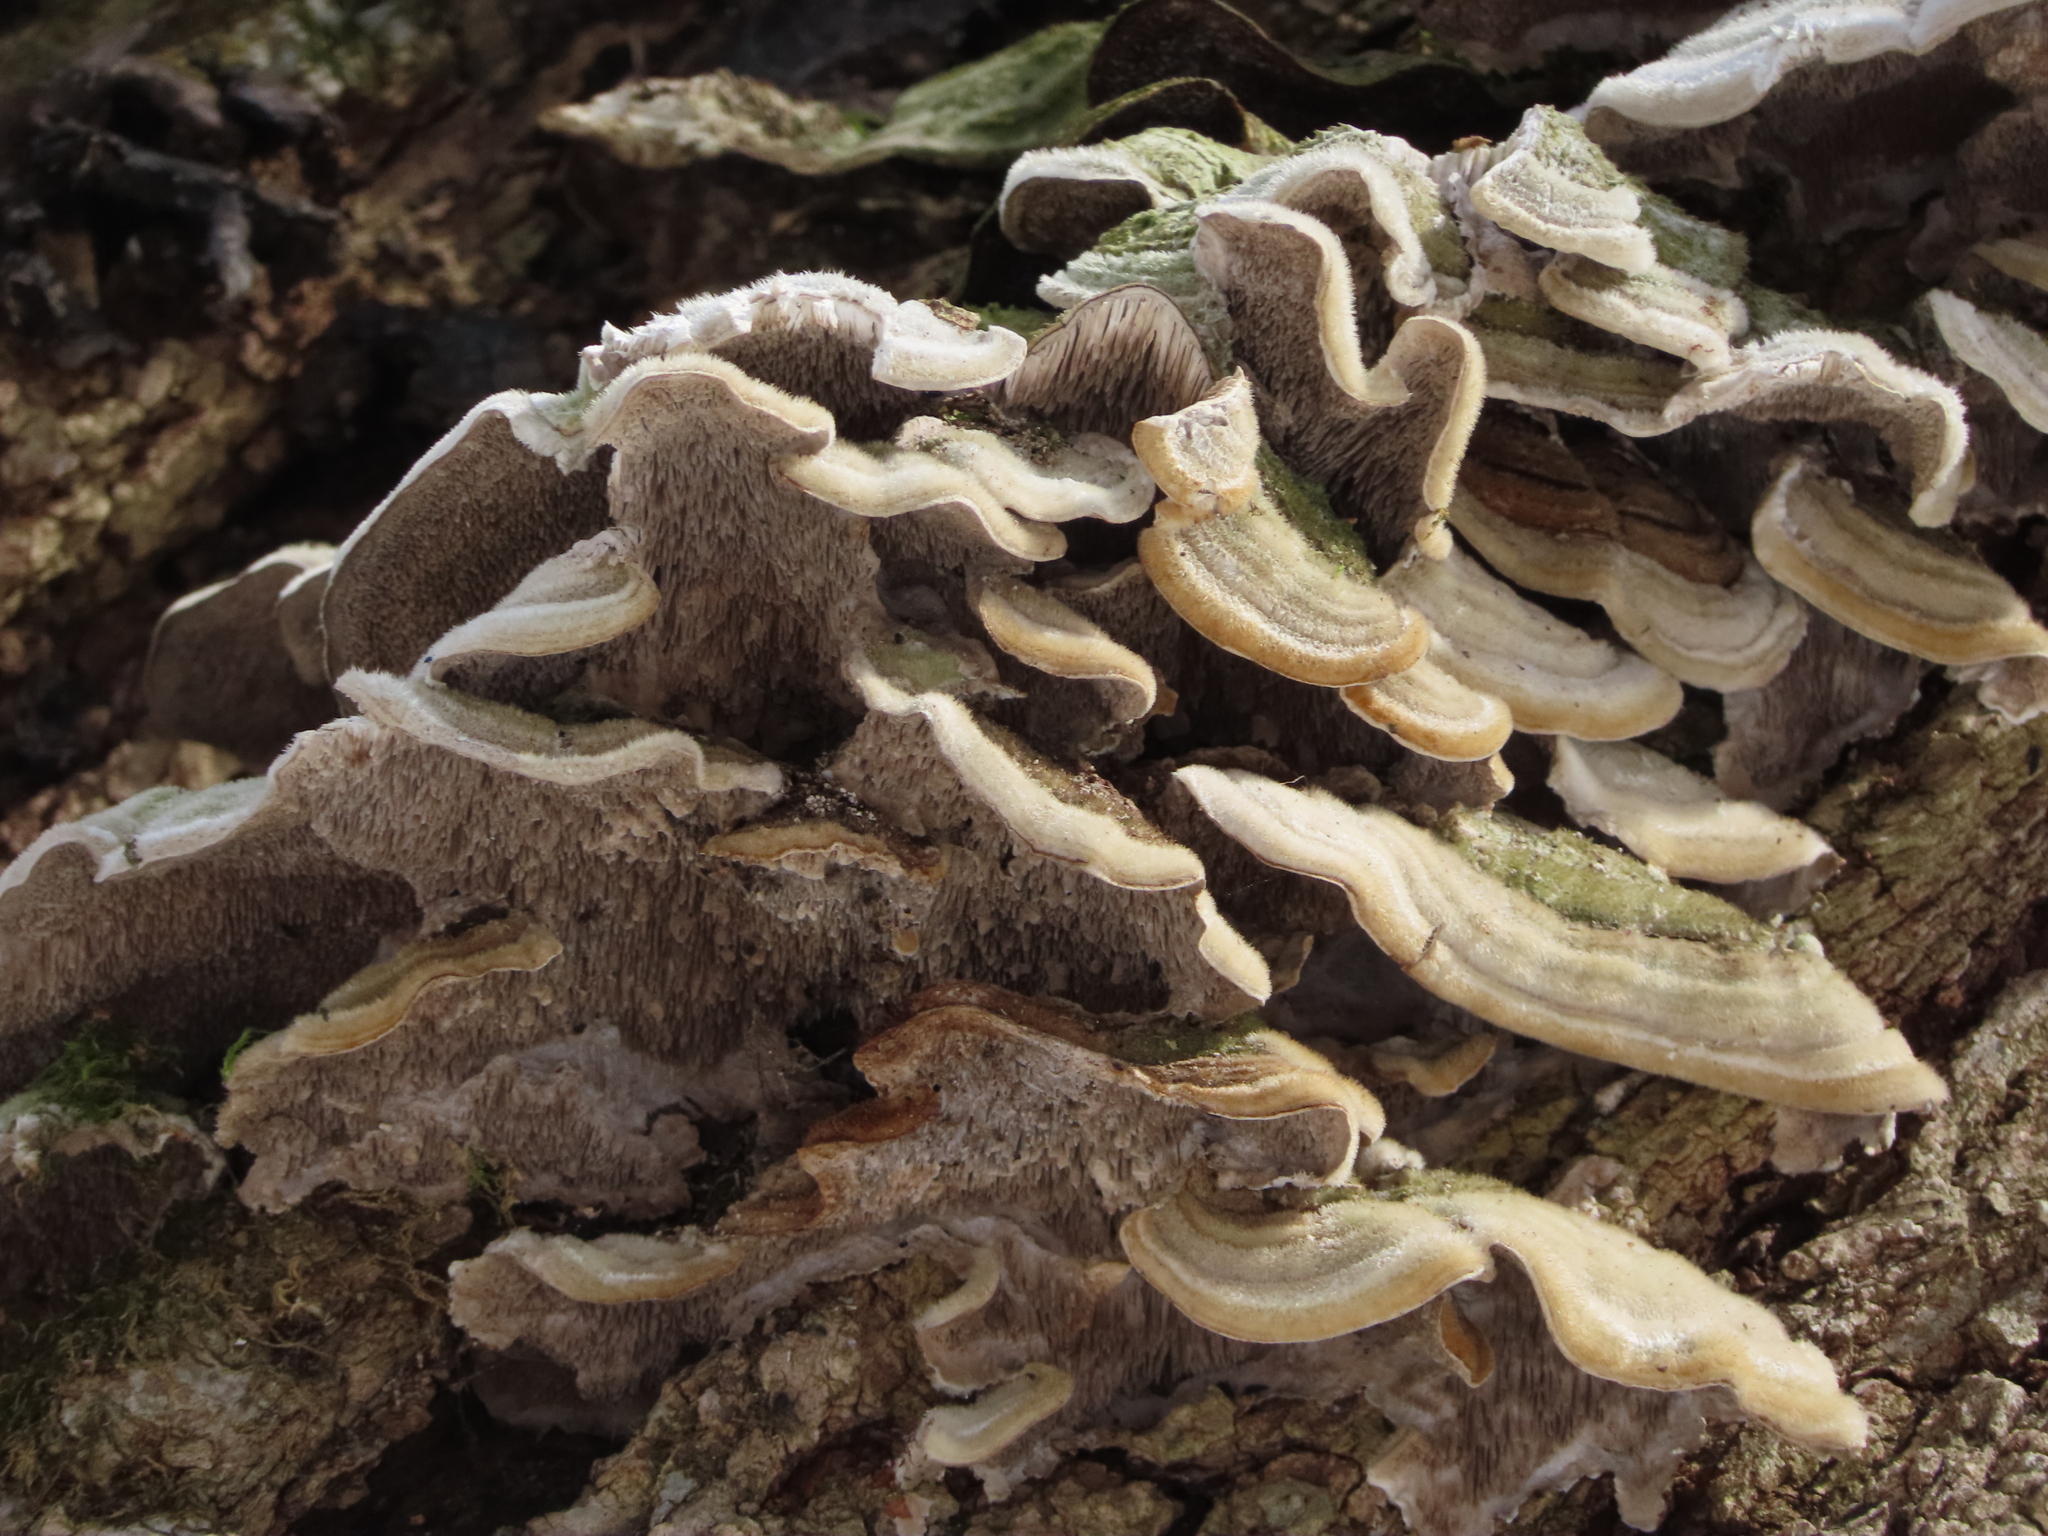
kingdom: Fungi
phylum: Basidiomycota
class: Agaricomycetes
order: Polyporales
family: Cerrenaceae
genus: Cerrena
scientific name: Cerrena unicolor
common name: Mossy maze polypore
